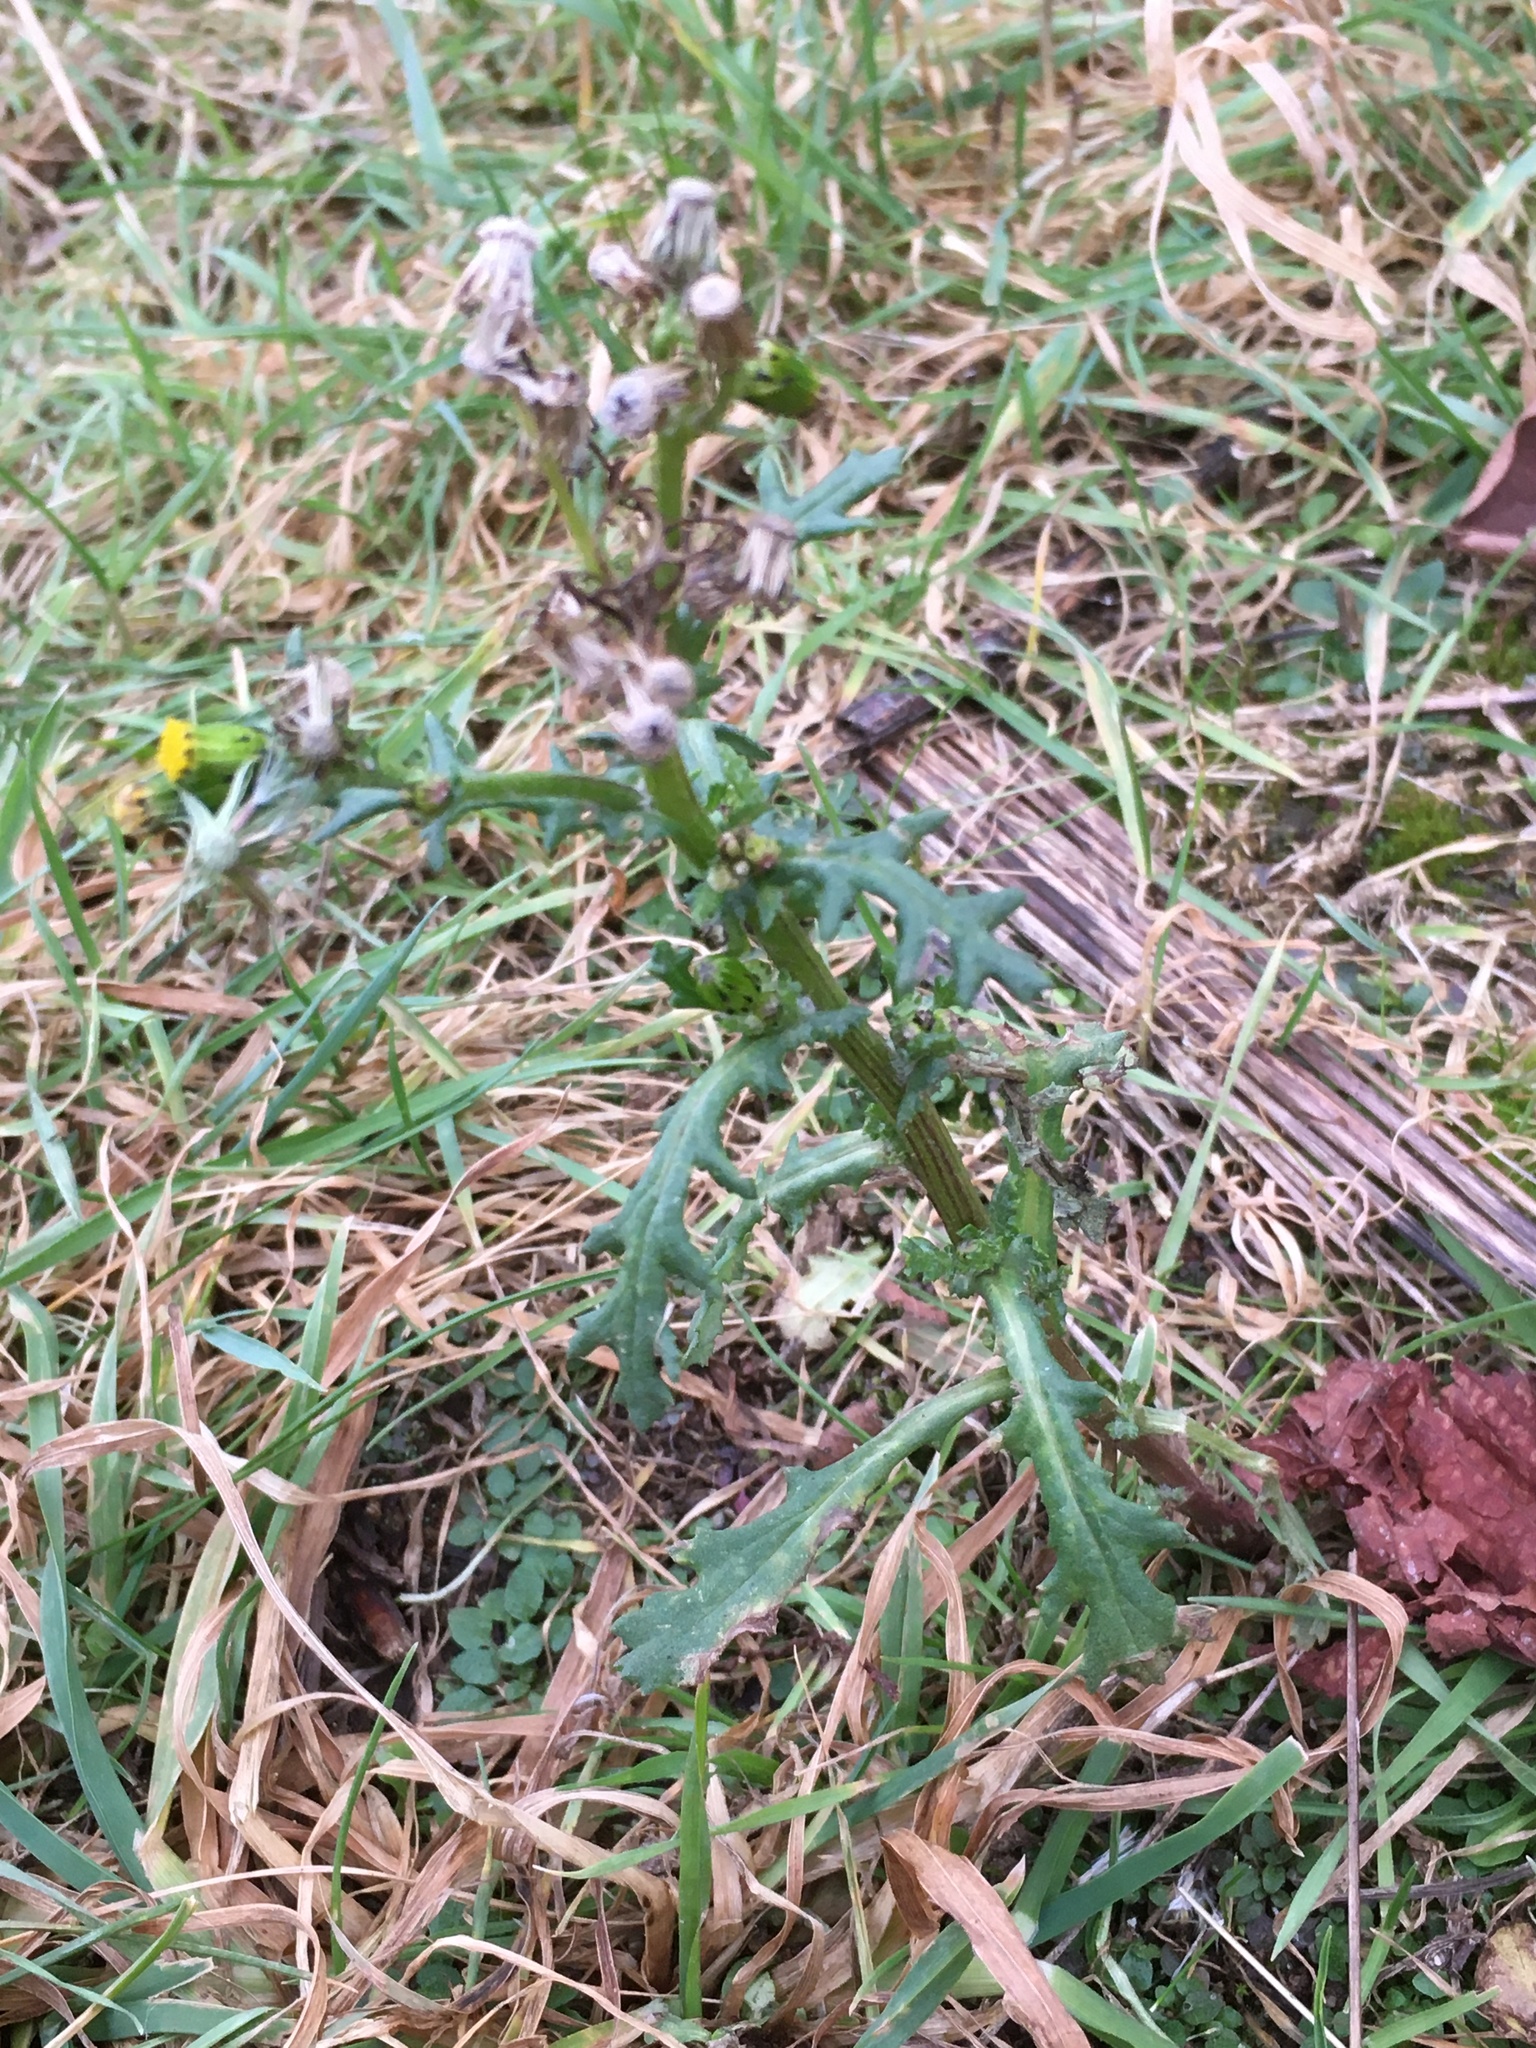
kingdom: Plantae
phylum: Tracheophyta
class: Magnoliopsida
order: Asterales
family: Asteraceae
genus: Senecio
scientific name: Senecio vulgaris
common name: Old-man-in-the-spring
